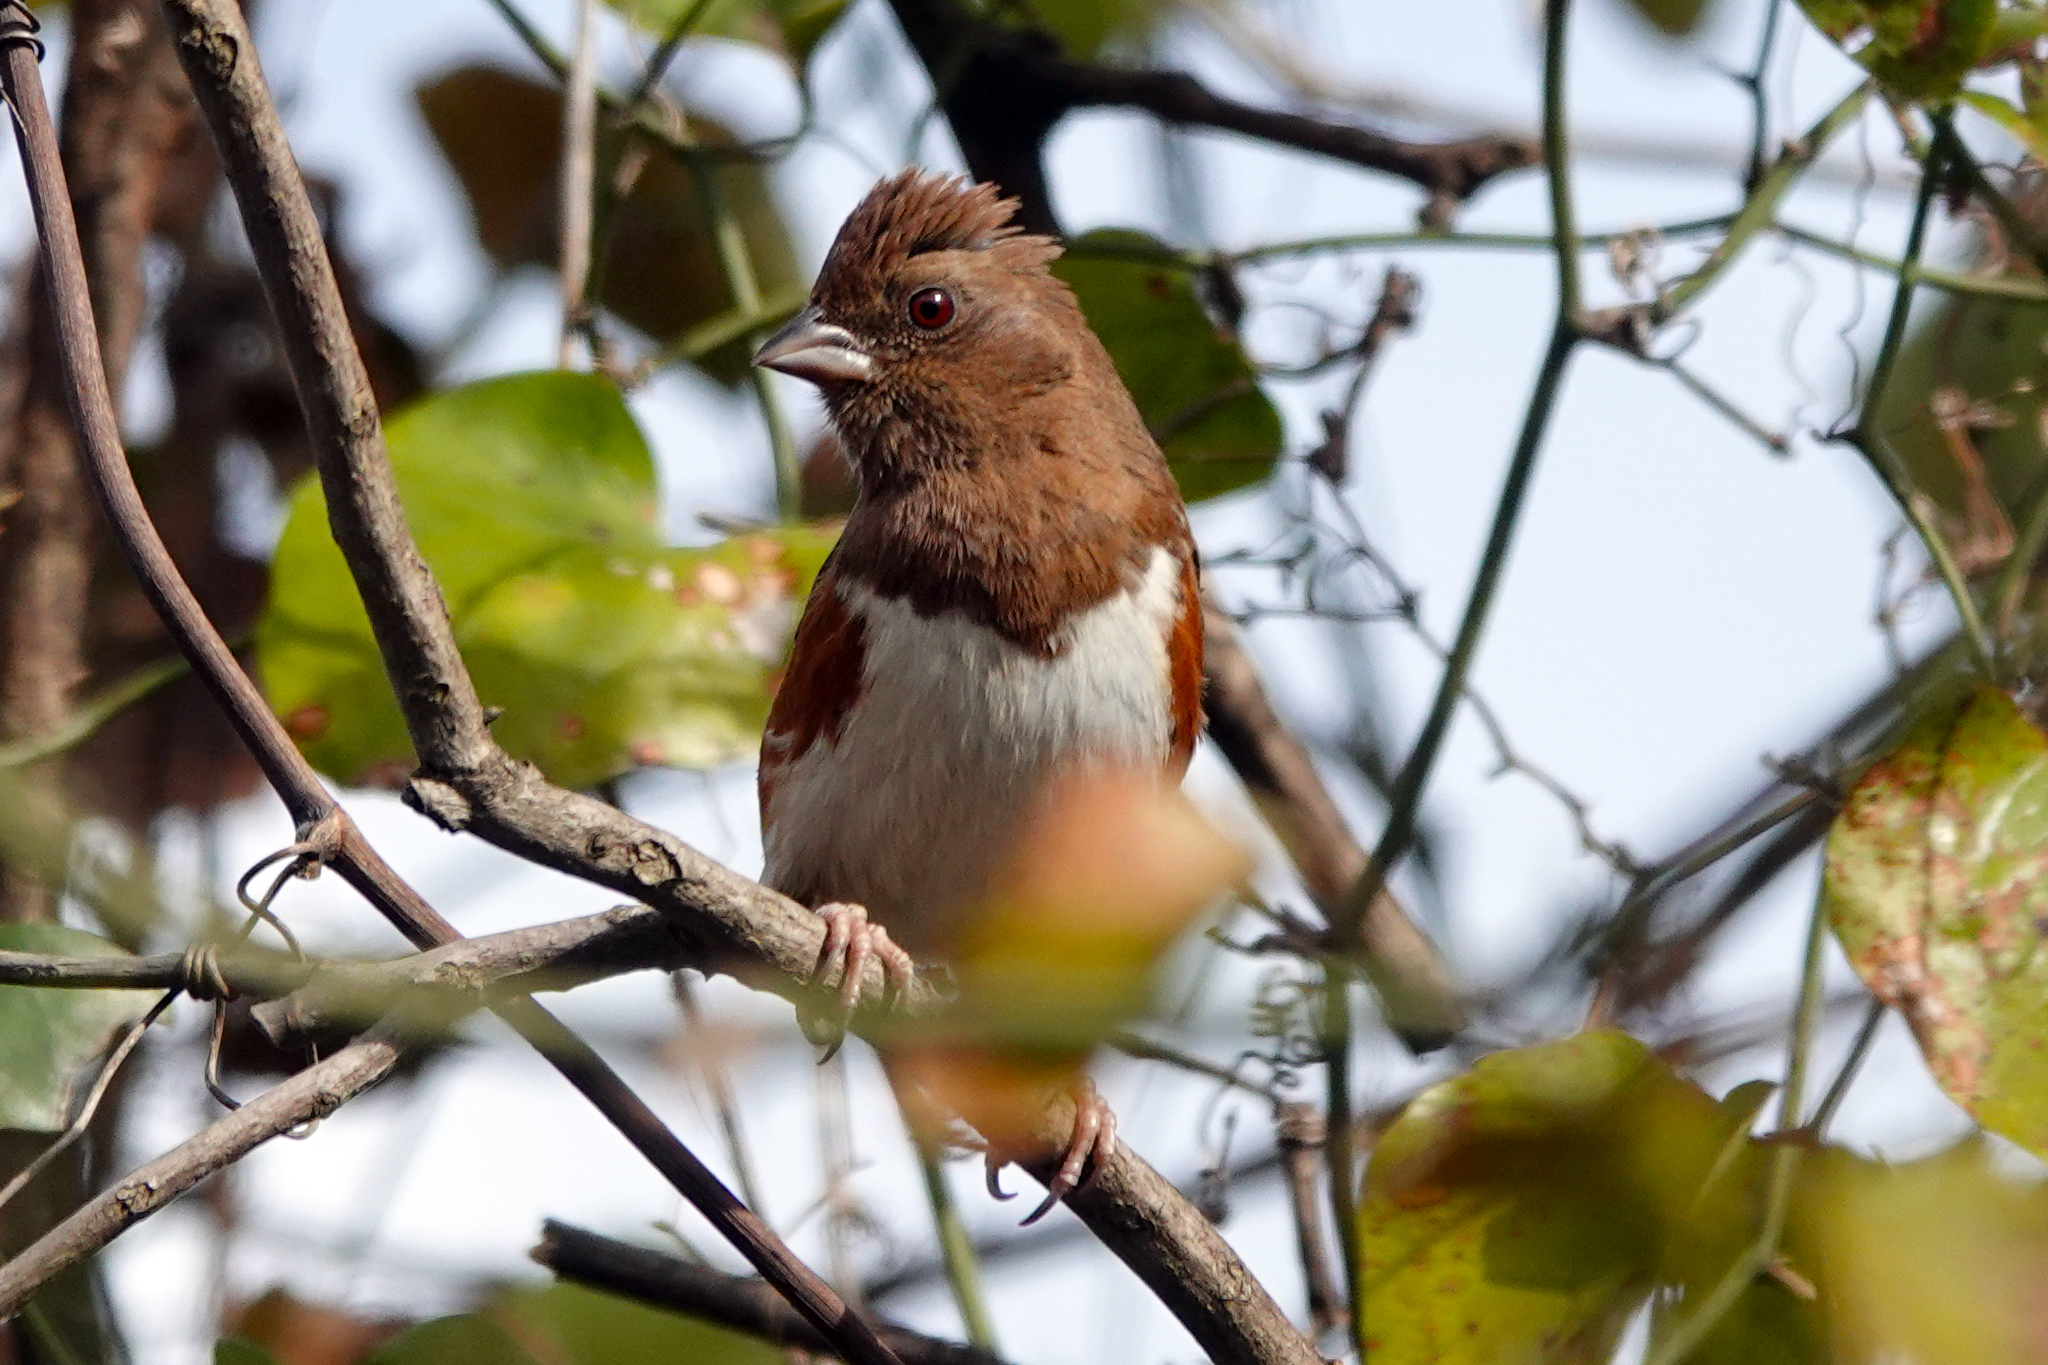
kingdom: Animalia
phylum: Chordata
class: Aves
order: Passeriformes
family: Passerellidae
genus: Pipilo
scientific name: Pipilo erythrophthalmus
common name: Eastern towhee
